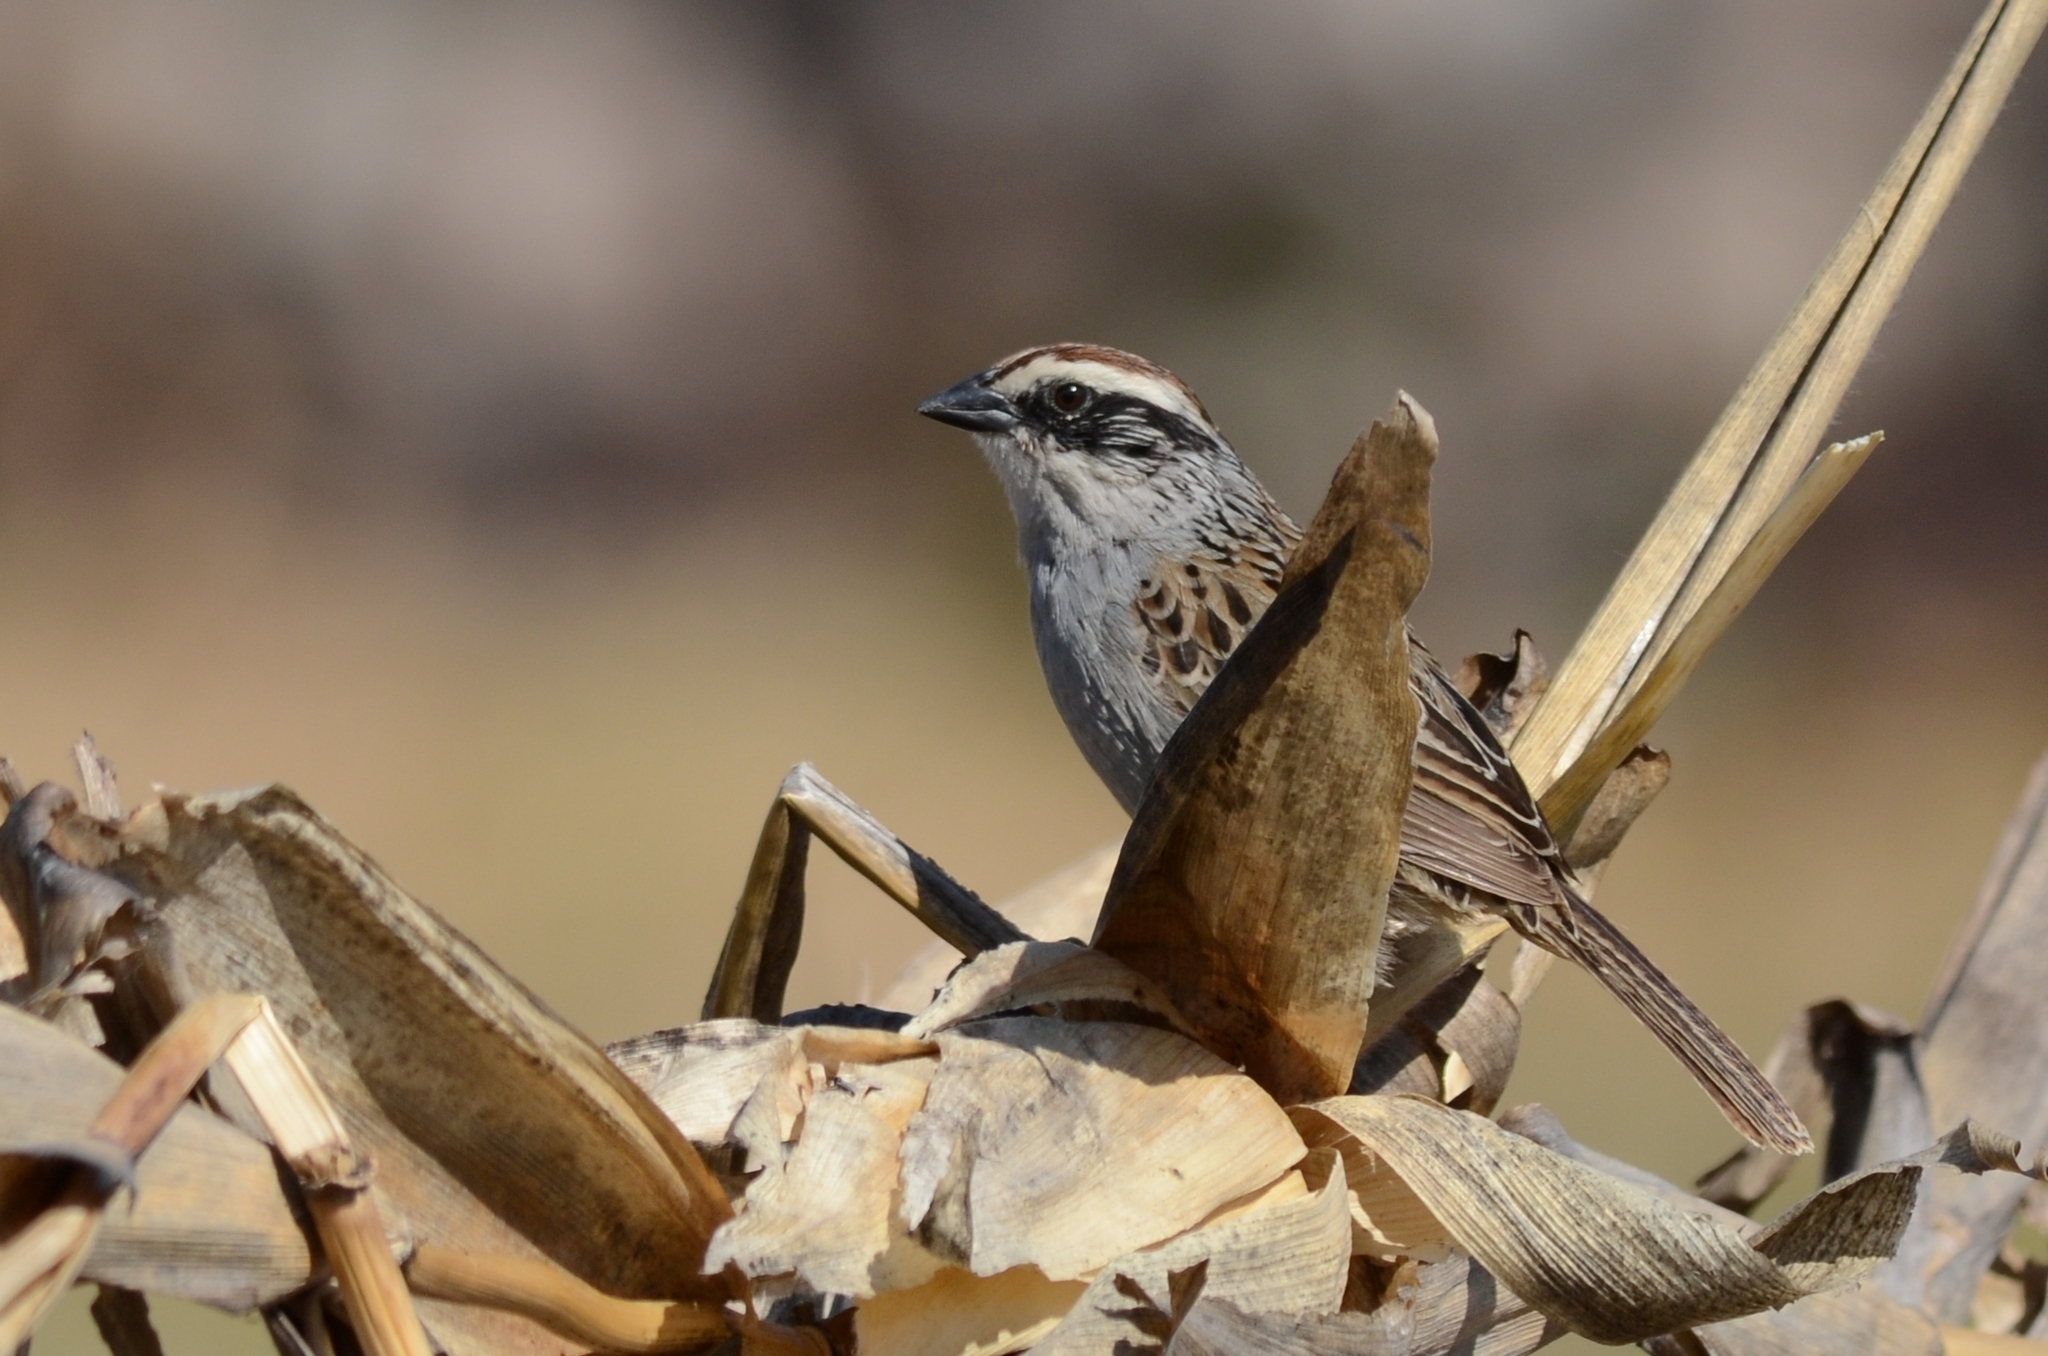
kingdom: Animalia
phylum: Chordata
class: Aves
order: Passeriformes
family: Passerellidae
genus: Oriturus
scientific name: Oriturus superciliosus
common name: Striped sparrow
